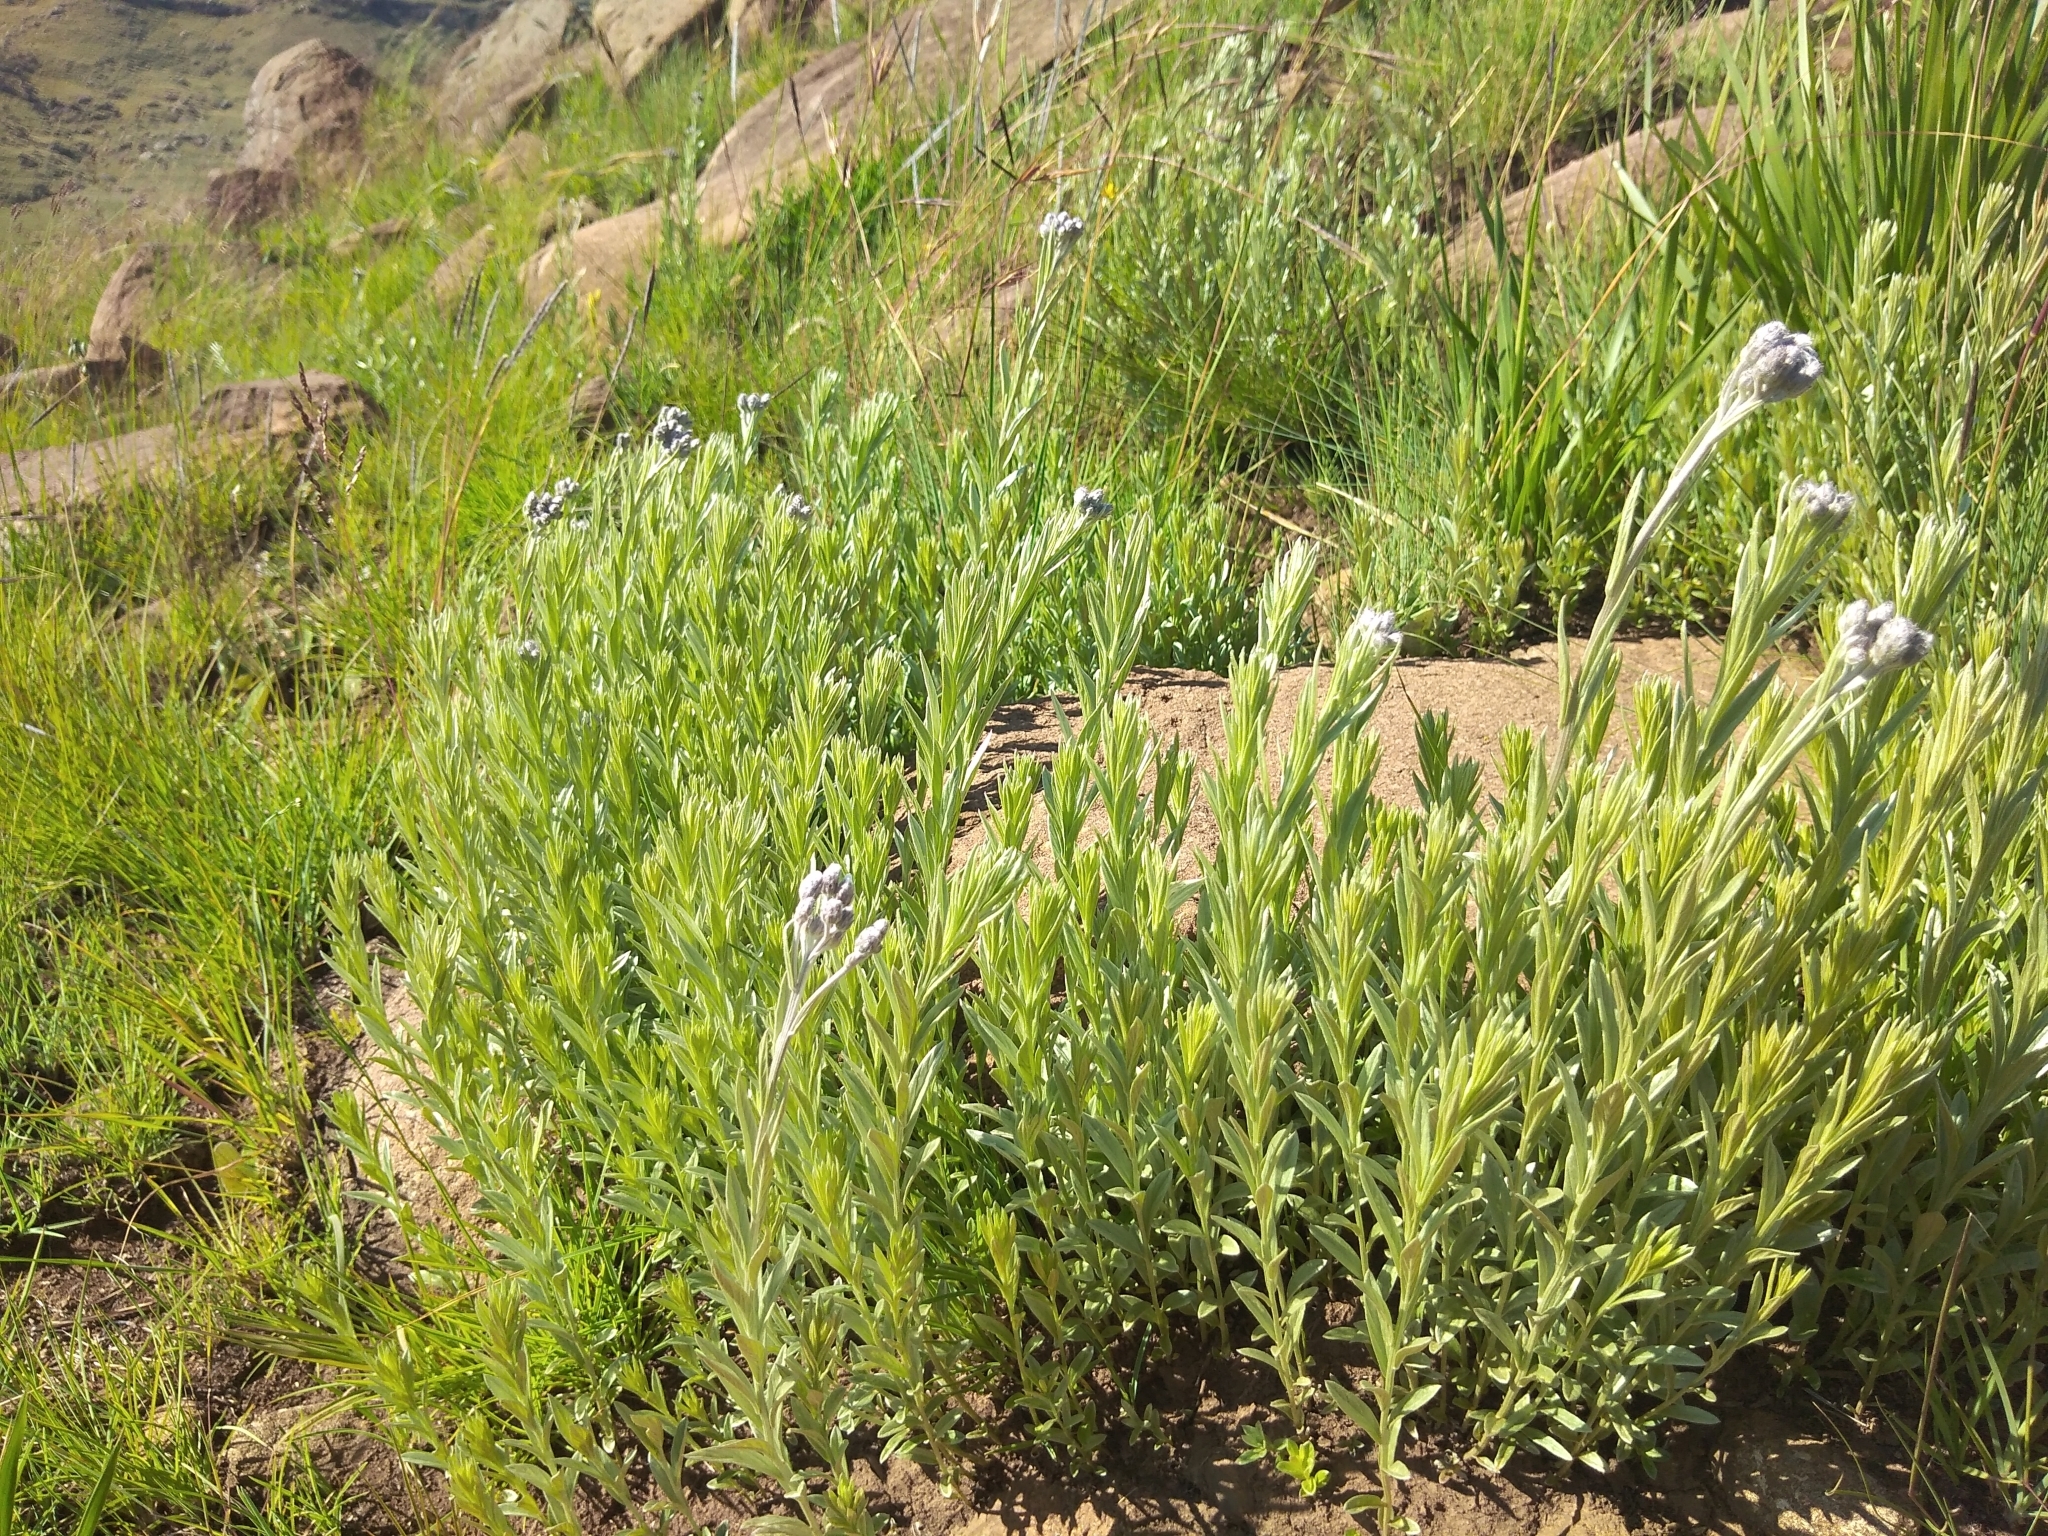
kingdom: Plantae
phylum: Tracheophyta
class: Magnoliopsida
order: Asterales
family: Asteraceae
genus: Hilliardiella
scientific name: Hilliardiella aristata
